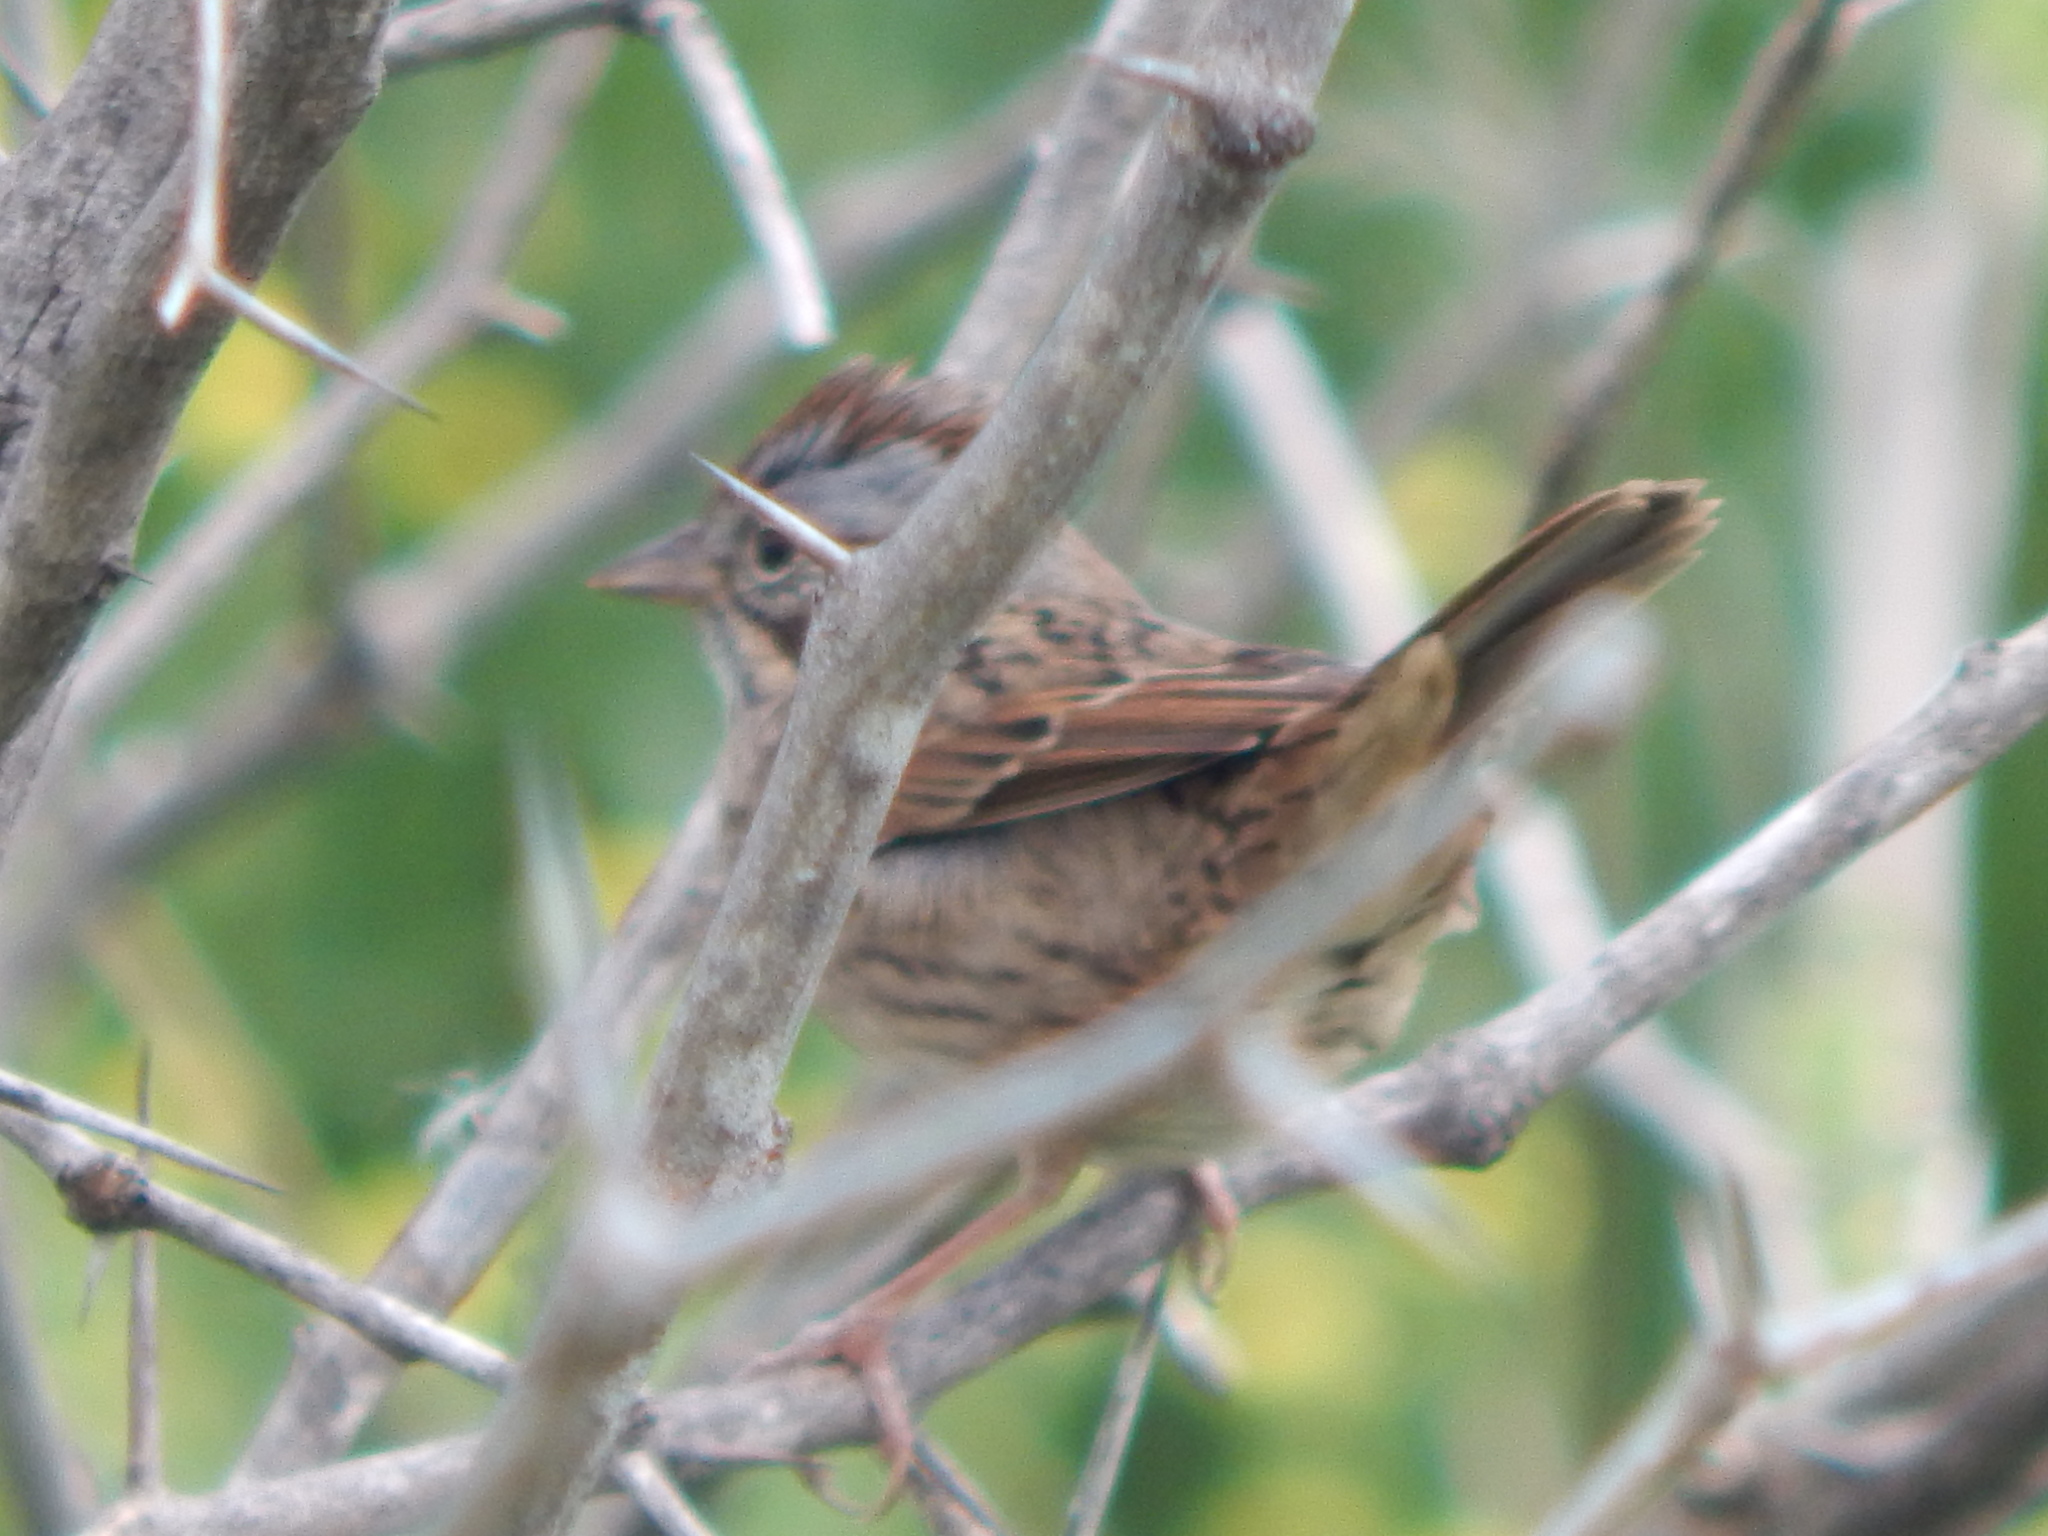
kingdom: Animalia
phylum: Chordata
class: Aves
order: Passeriformes
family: Passerellidae
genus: Melospiza
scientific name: Melospiza lincolnii
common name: Lincoln's sparrow
